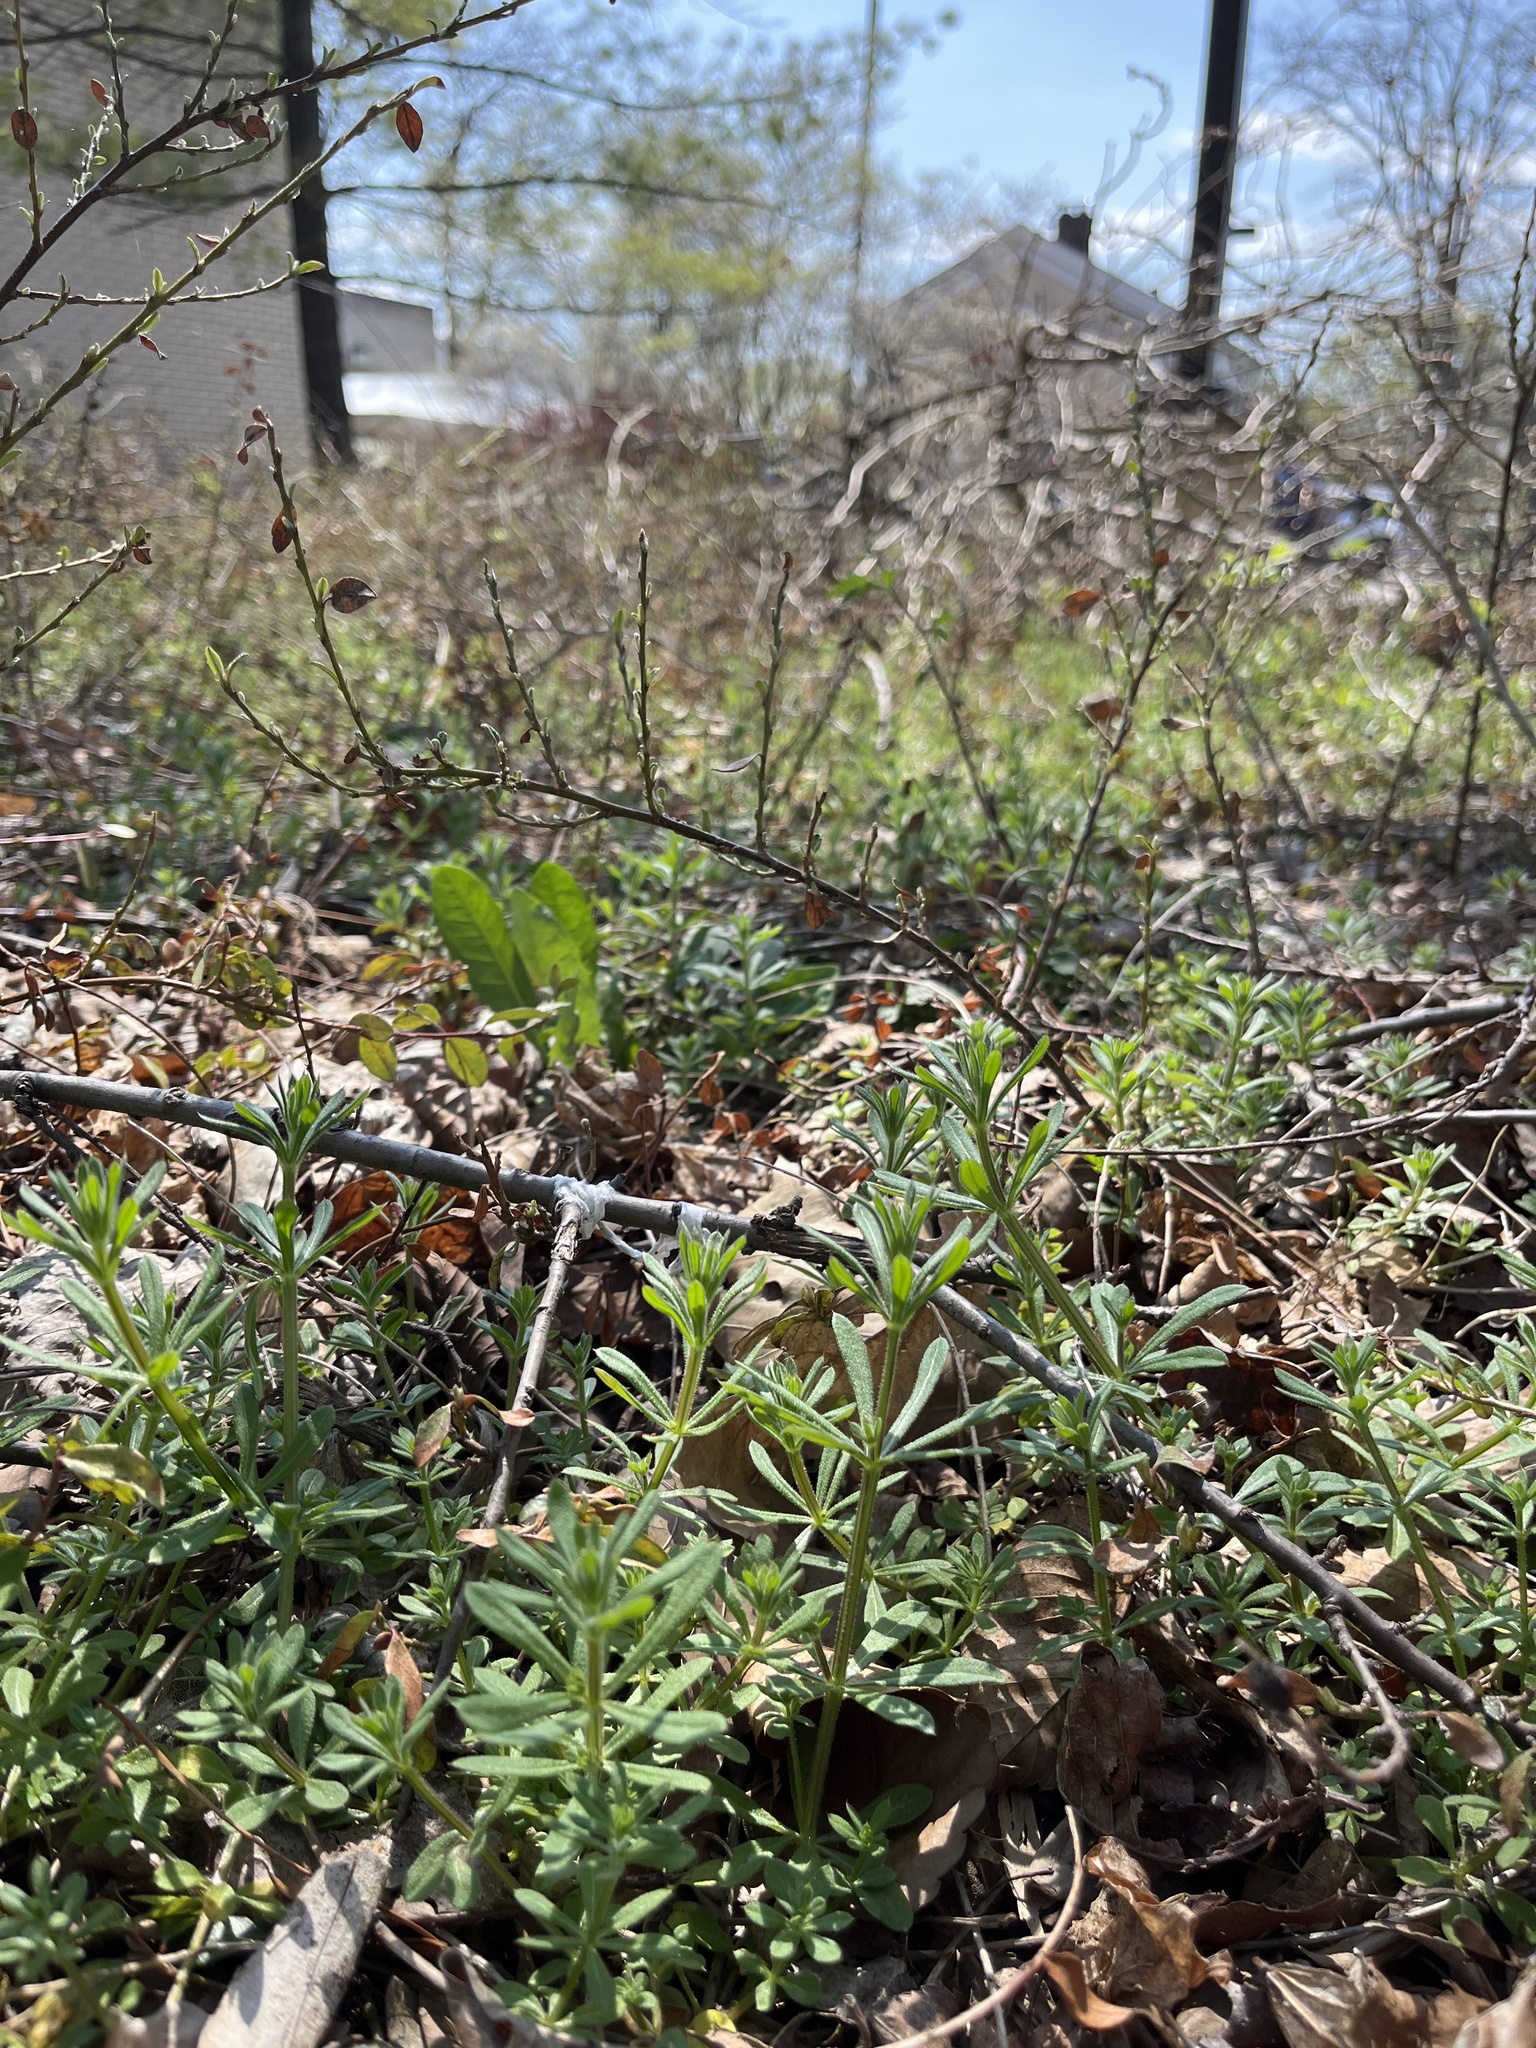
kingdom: Plantae
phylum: Tracheophyta
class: Magnoliopsida
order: Gentianales
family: Rubiaceae
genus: Galium
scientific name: Galium aparine
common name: Cleavers
